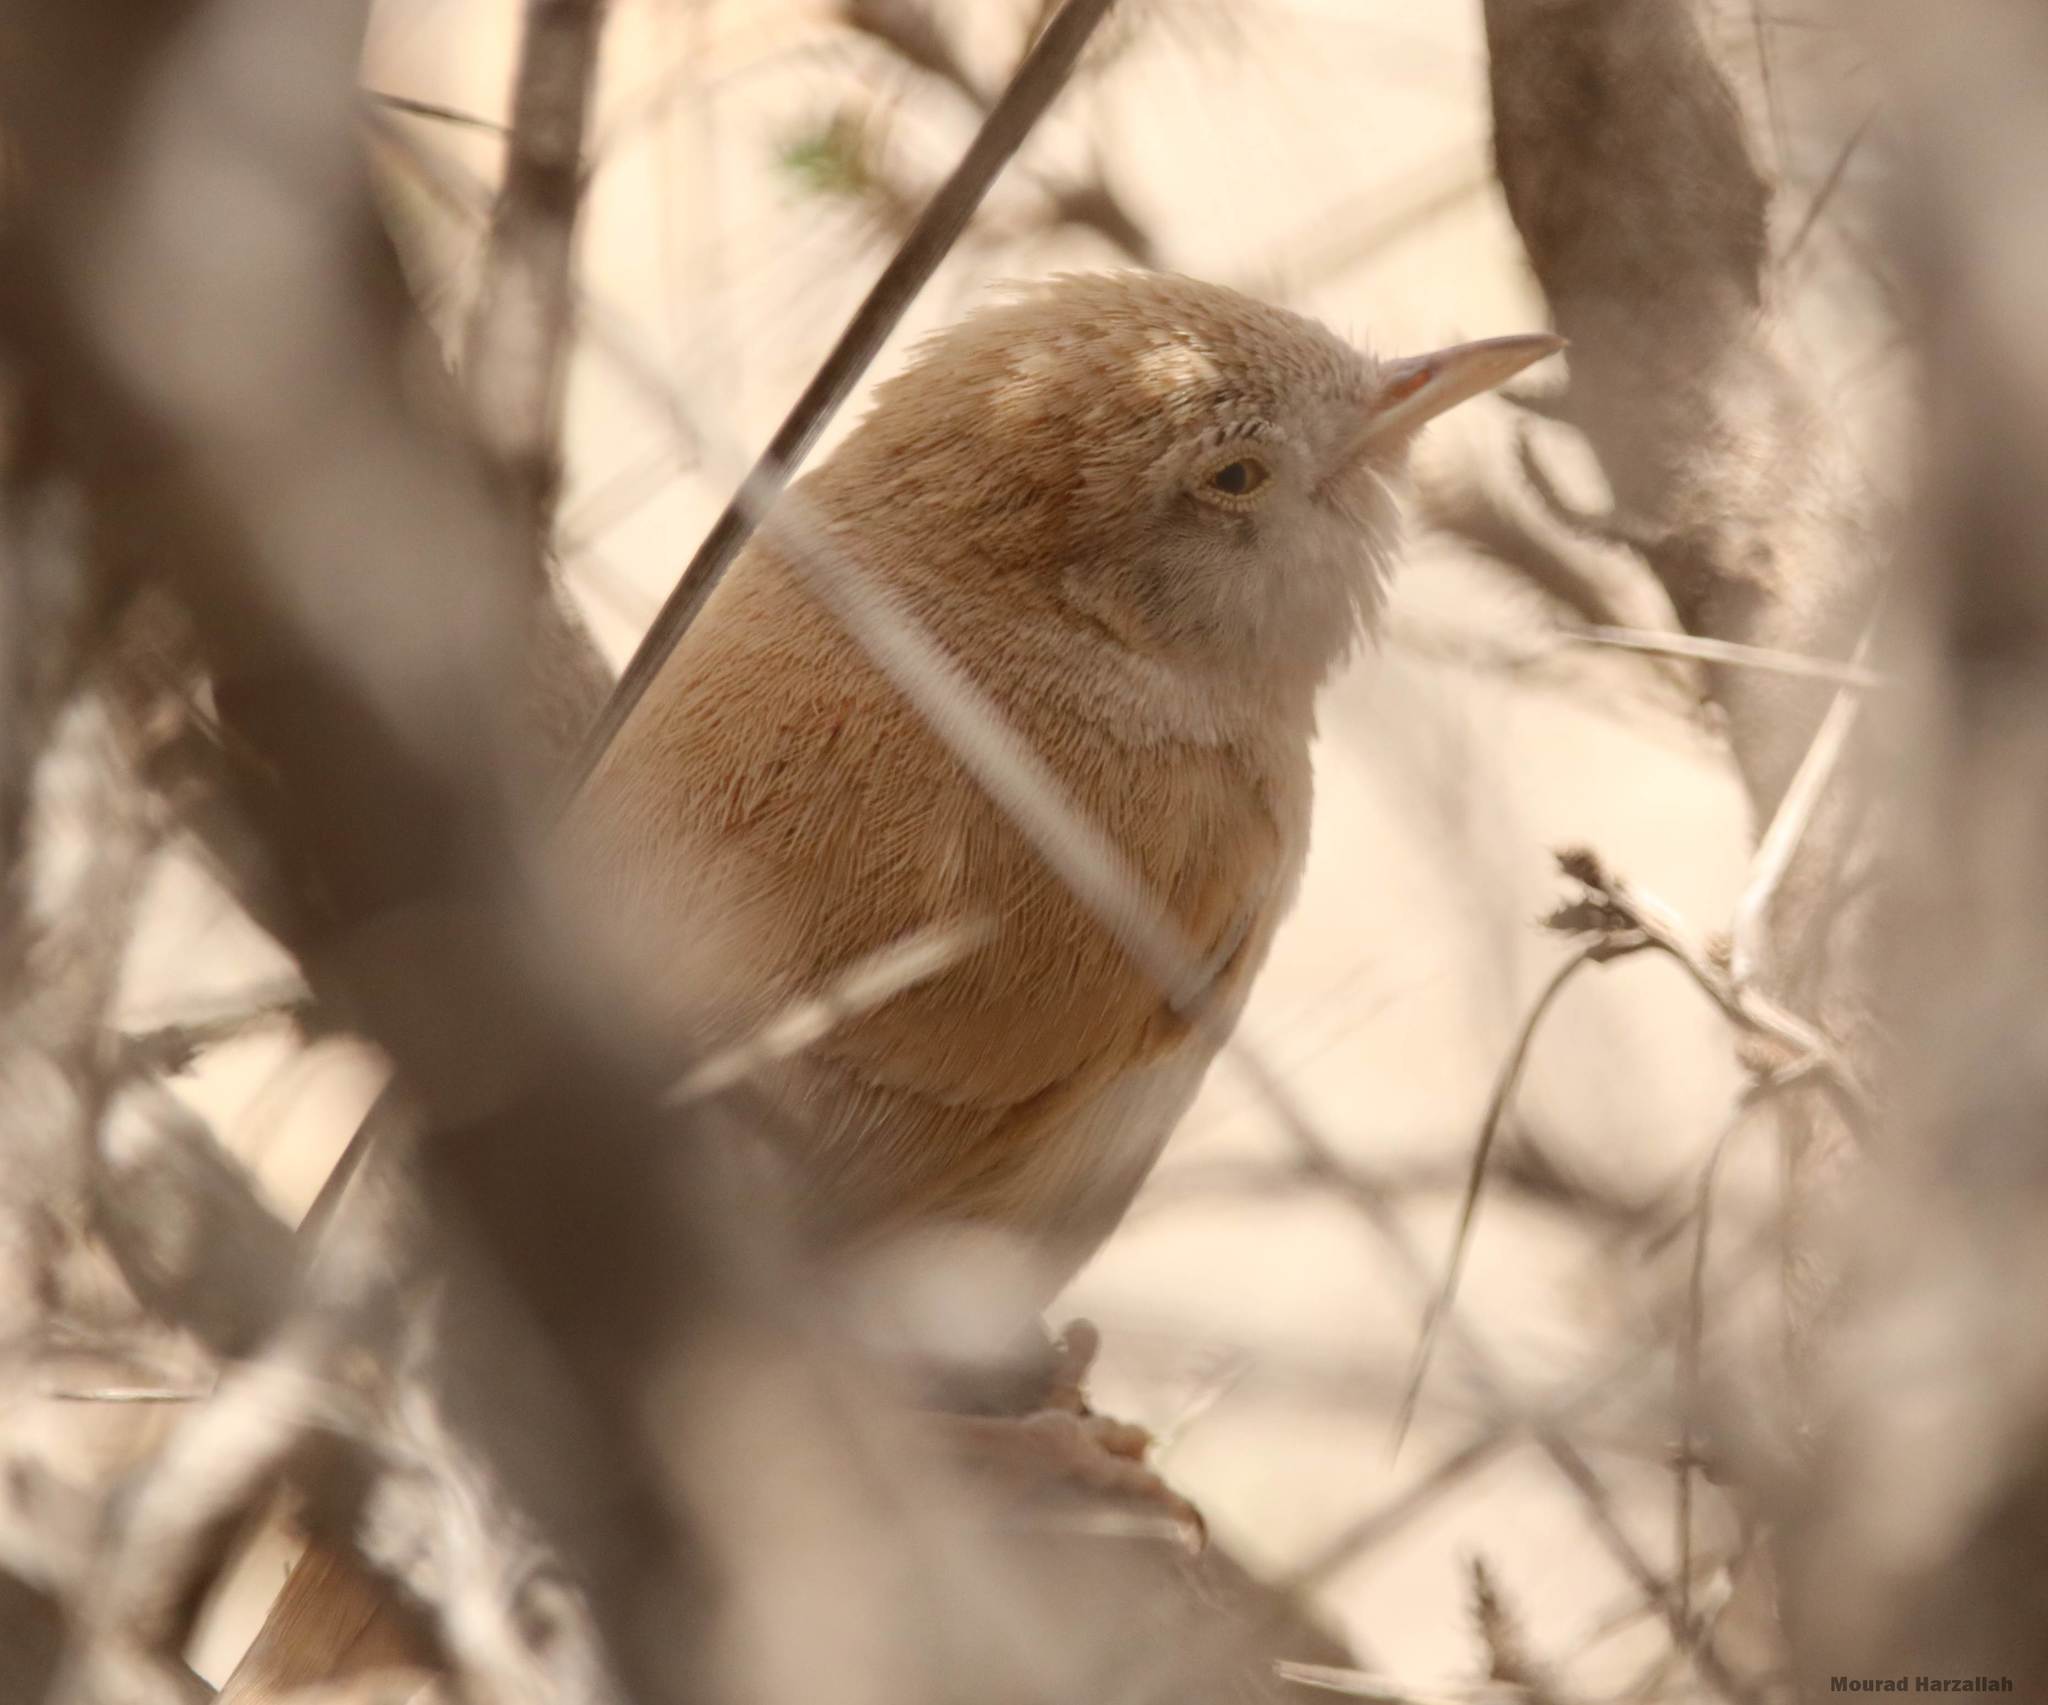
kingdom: Animalia
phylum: Chordata
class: Aves
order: Passeriformes
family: Sylviidae
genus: Sylvia
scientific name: Sylvia deserti
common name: African desert warbler
